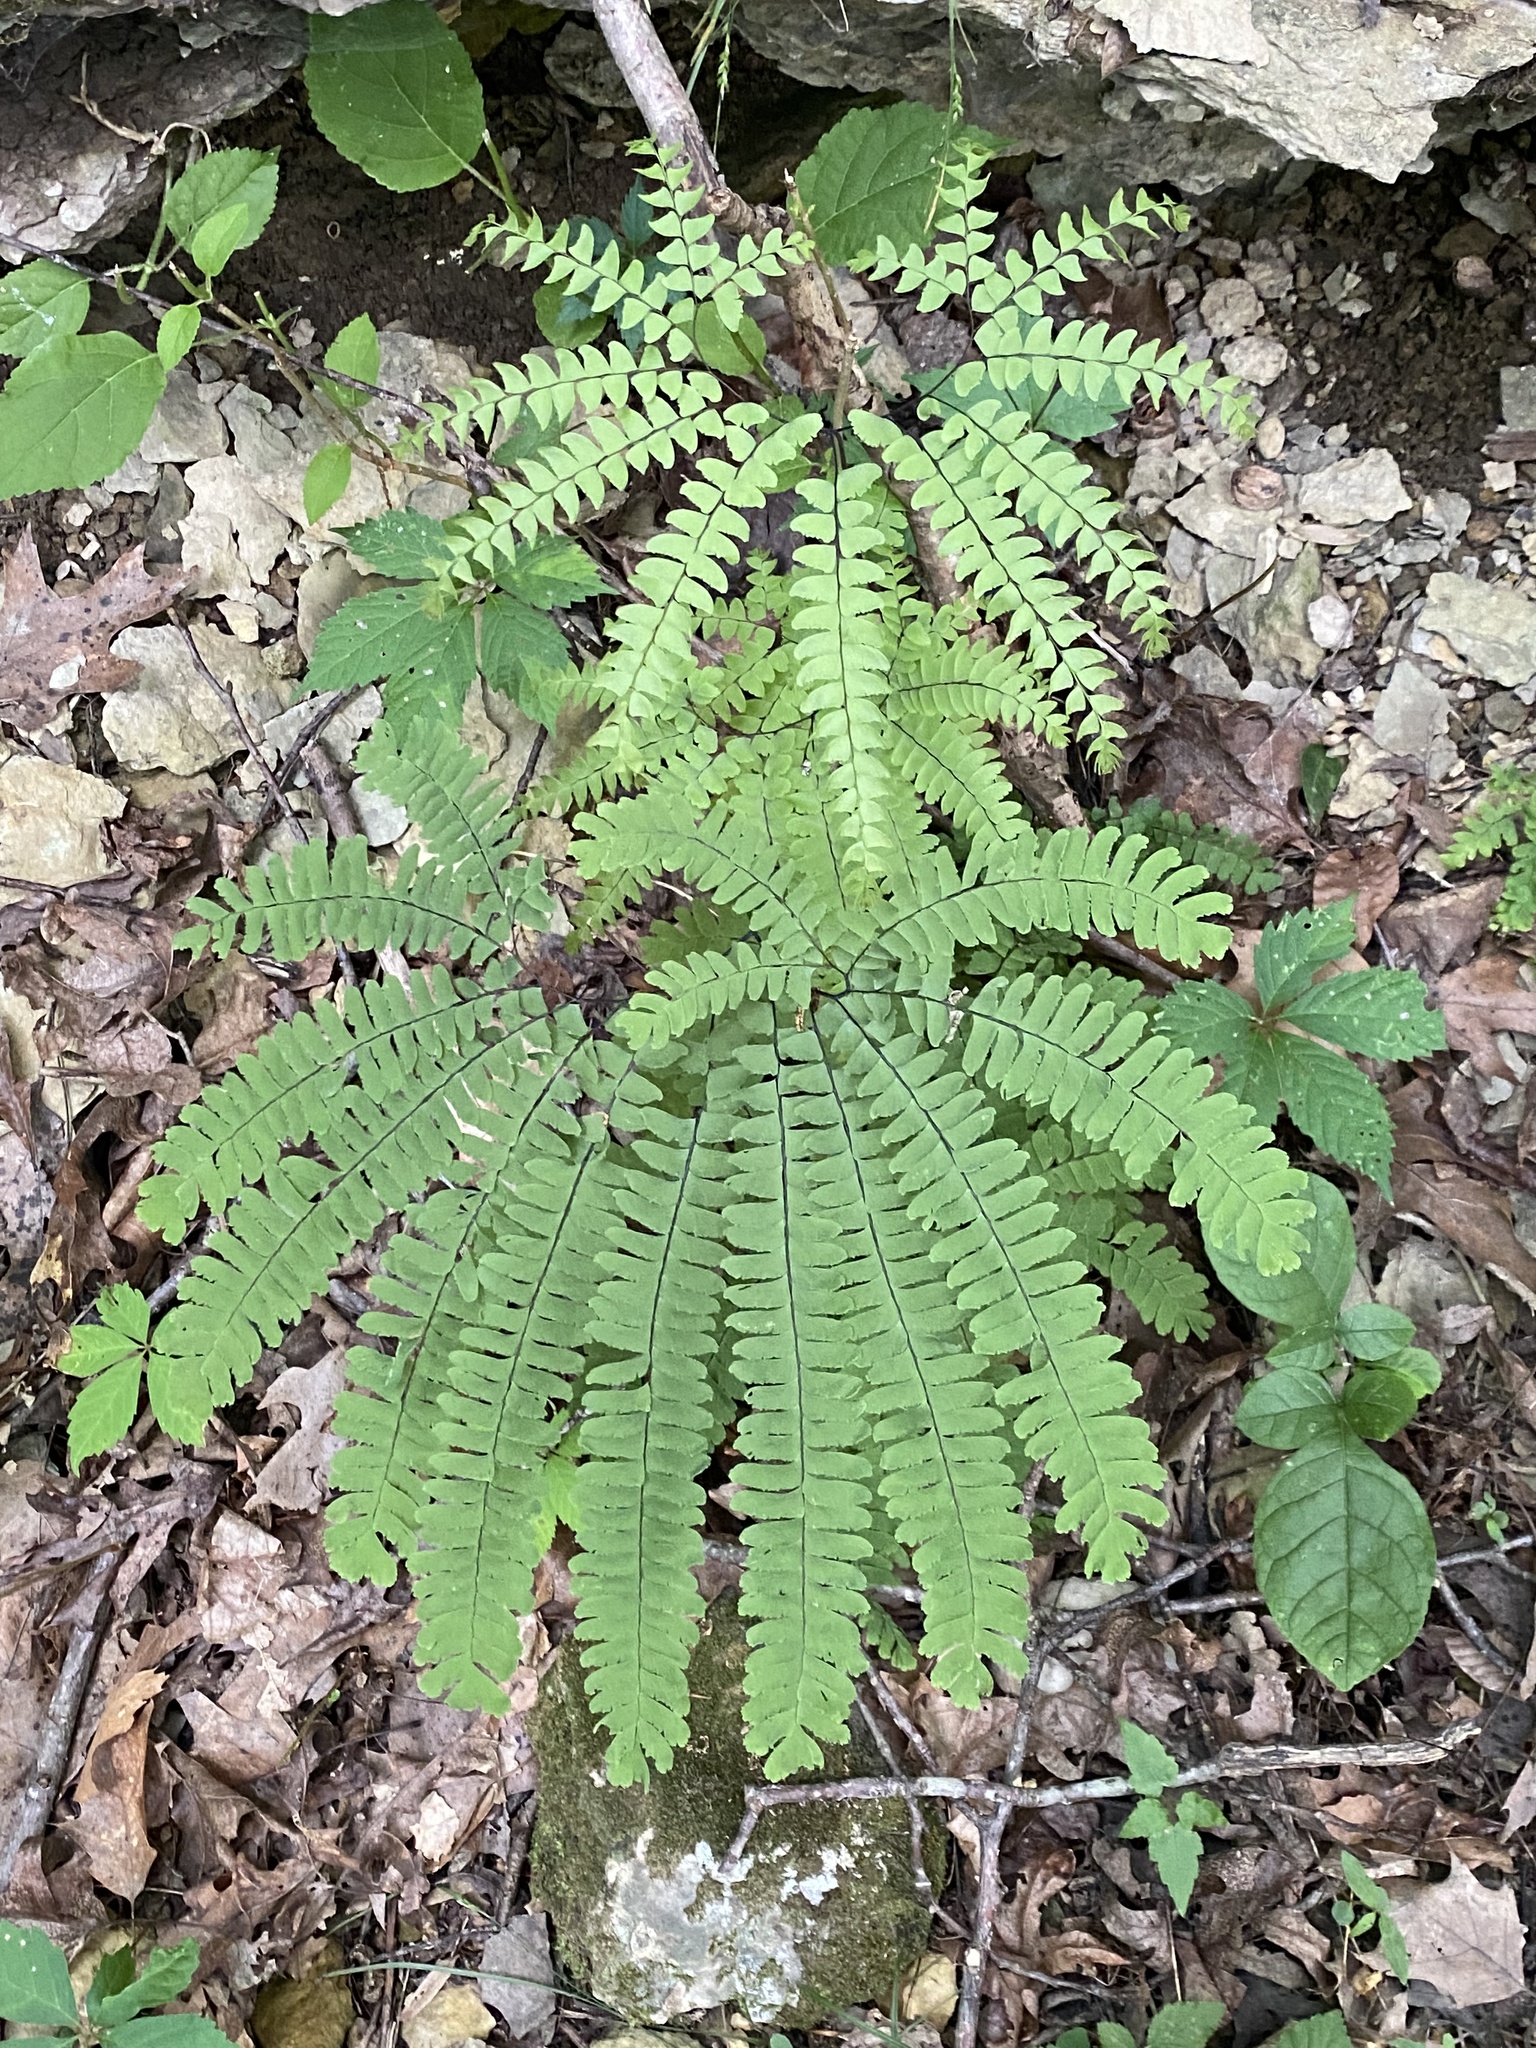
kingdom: Plantae
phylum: Tracheophyta
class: Polypodiopsida
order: Polypodiales
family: Pteridaceae
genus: Adiantum
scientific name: Adiantum pedatum
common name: Five-finger fern
